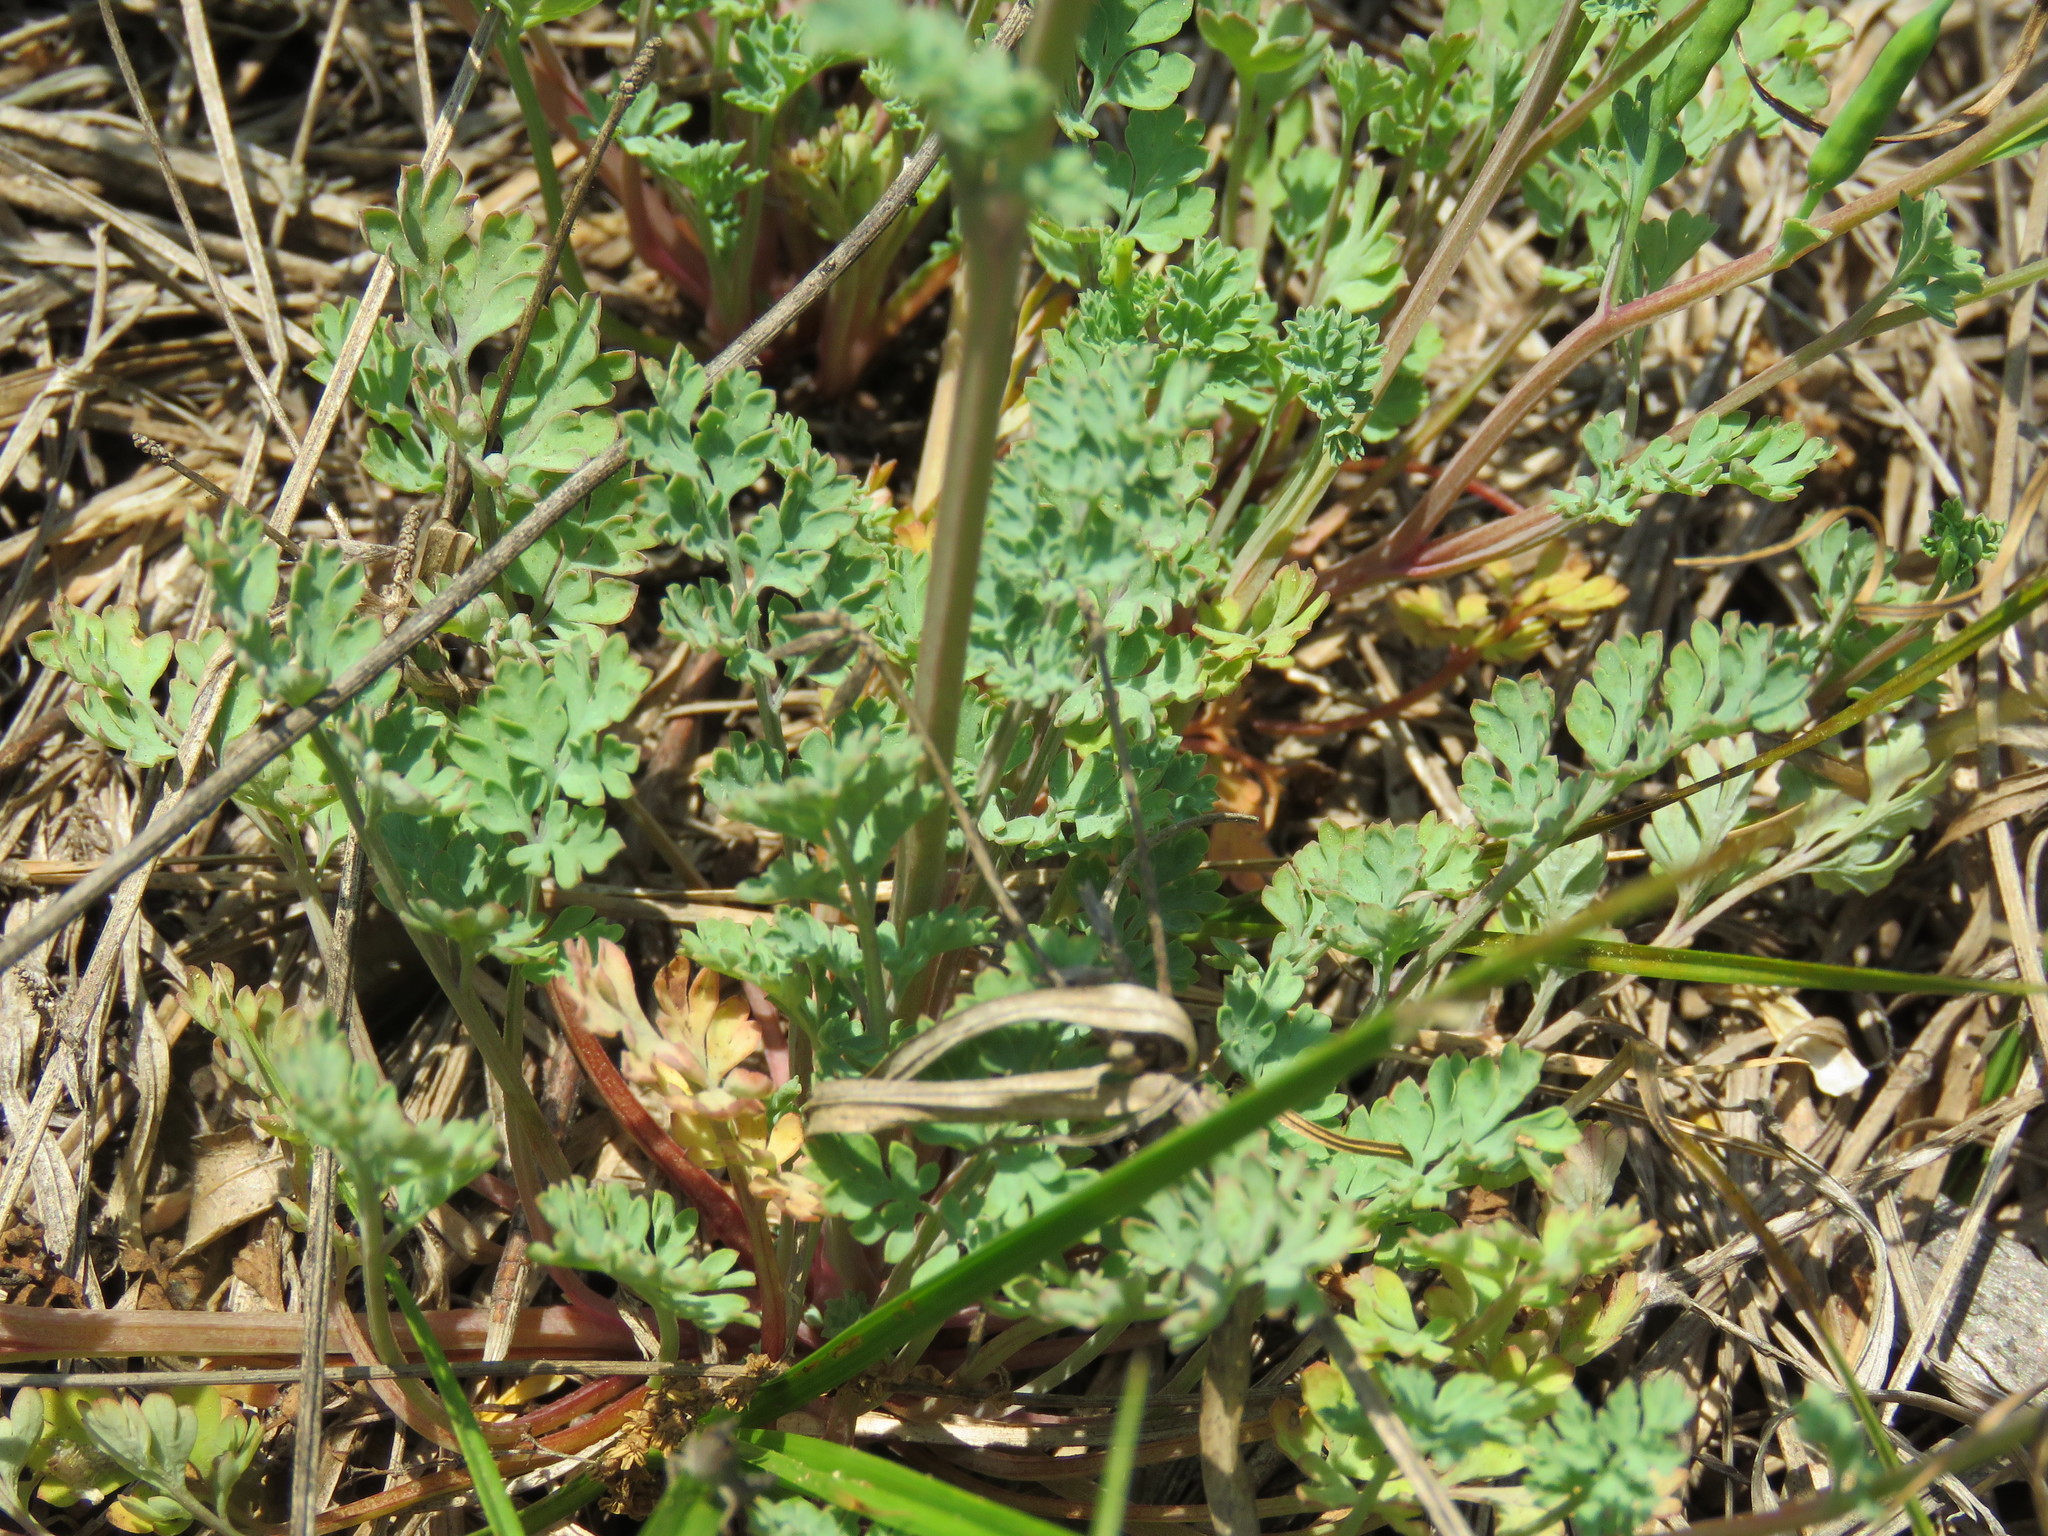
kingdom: Plantae
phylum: Tracheophyta
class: Magnoliopsida
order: Ranunculales
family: Papaveraceae
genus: Corydalis
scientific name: Corydalis micrantha
